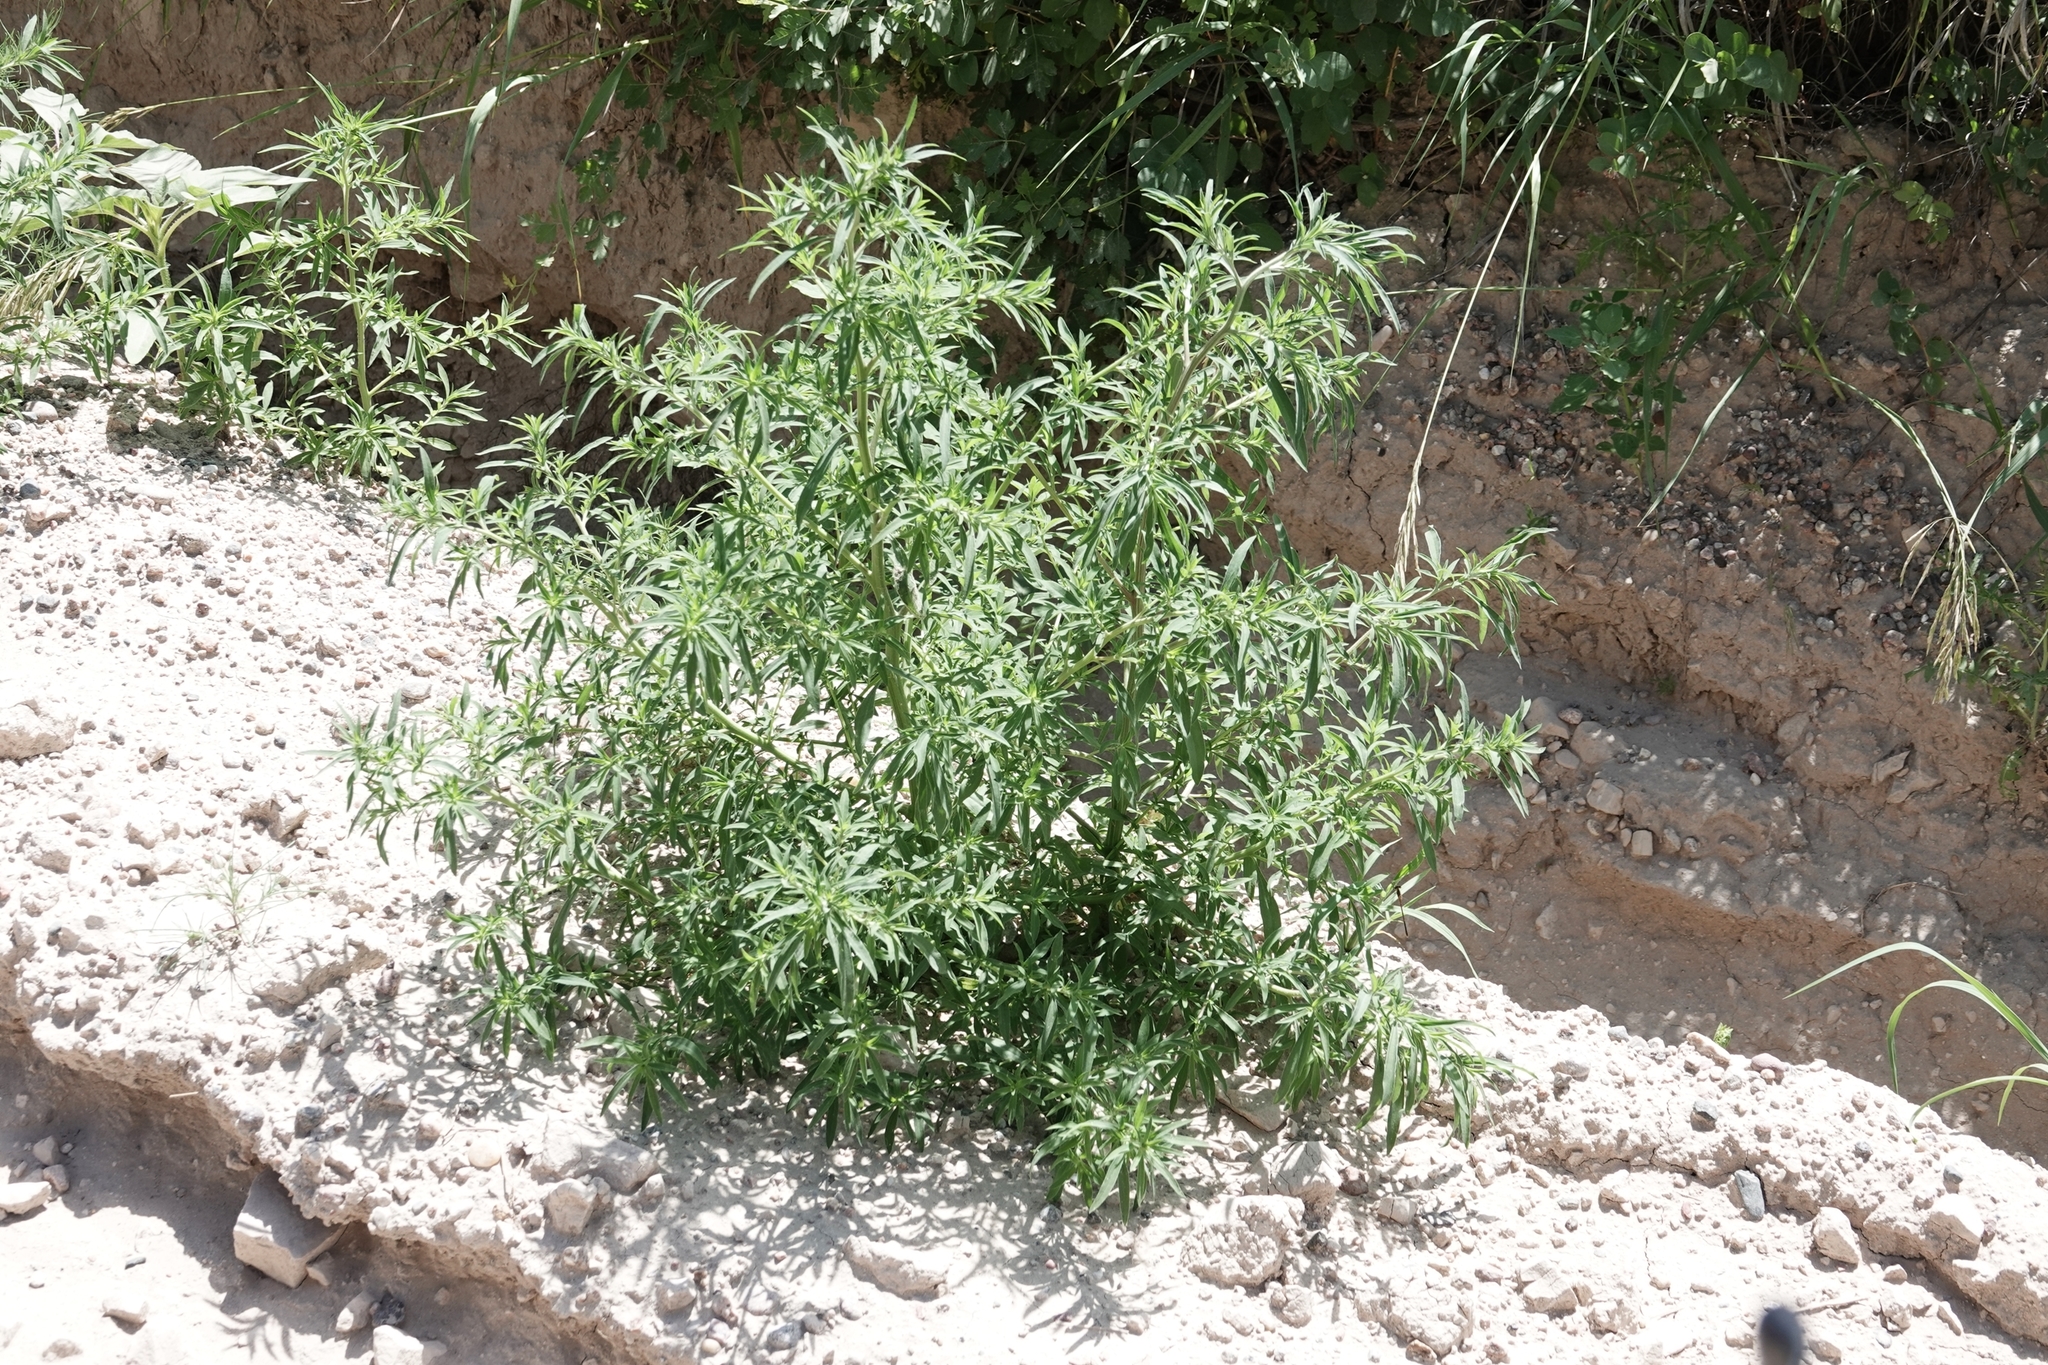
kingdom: Plantae
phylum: Tracheophyta
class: Magnoliopsida
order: Caryophyllales
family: Amaranthaceae
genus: Bassia
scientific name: Bassia scoparia
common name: Belvedere
